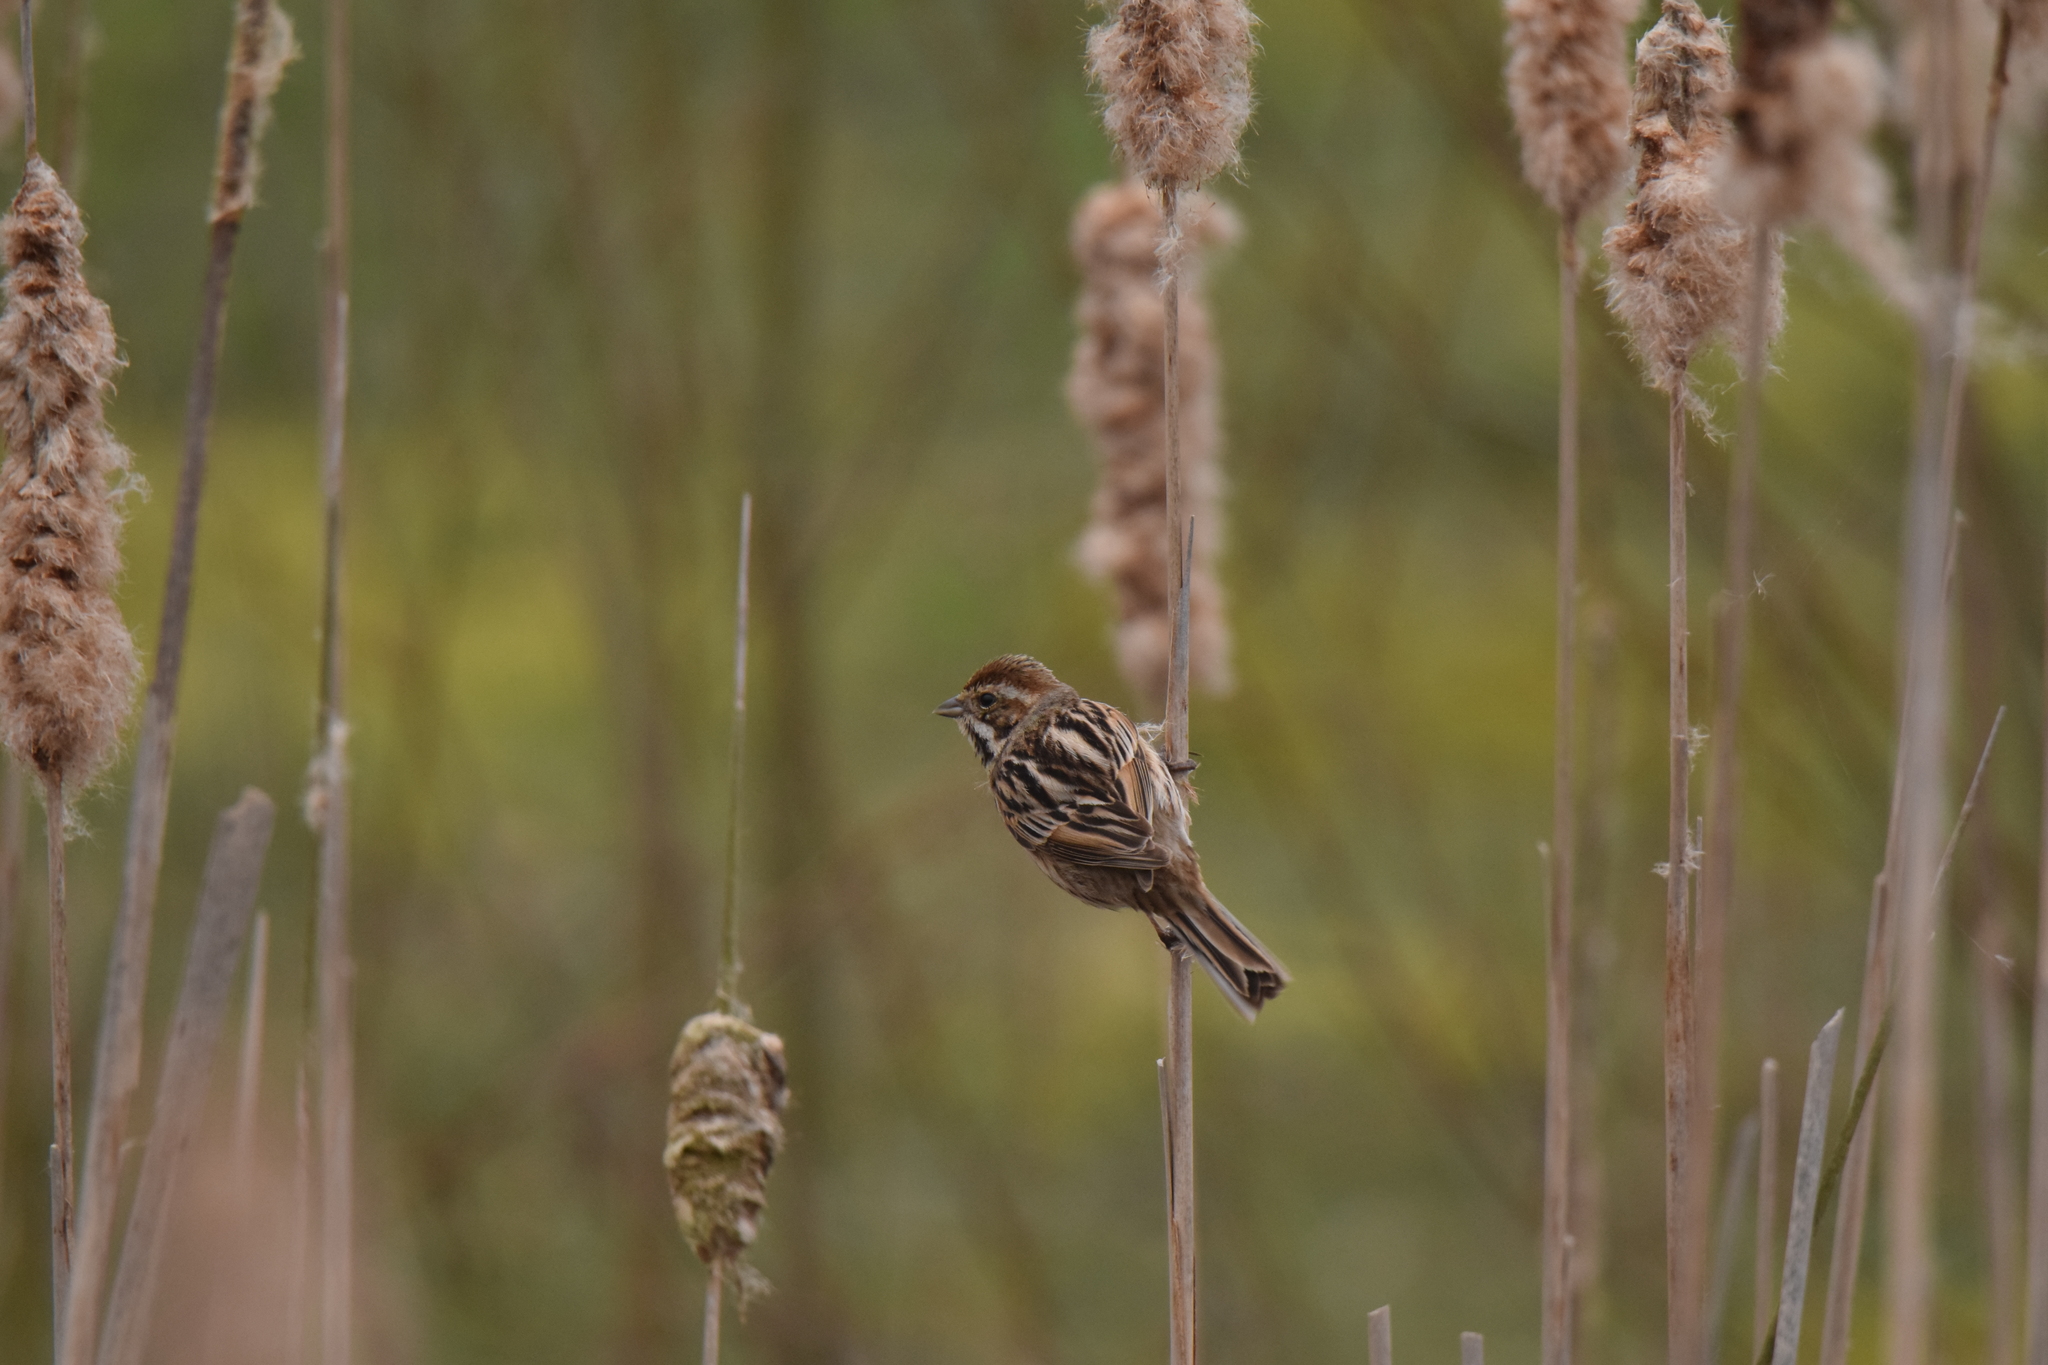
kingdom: Animalia
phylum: Chordata
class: Aves
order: Passeriformes
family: Emberizidae
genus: Emberiza
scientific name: Emberiza schoeniclus
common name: Reed bunting
